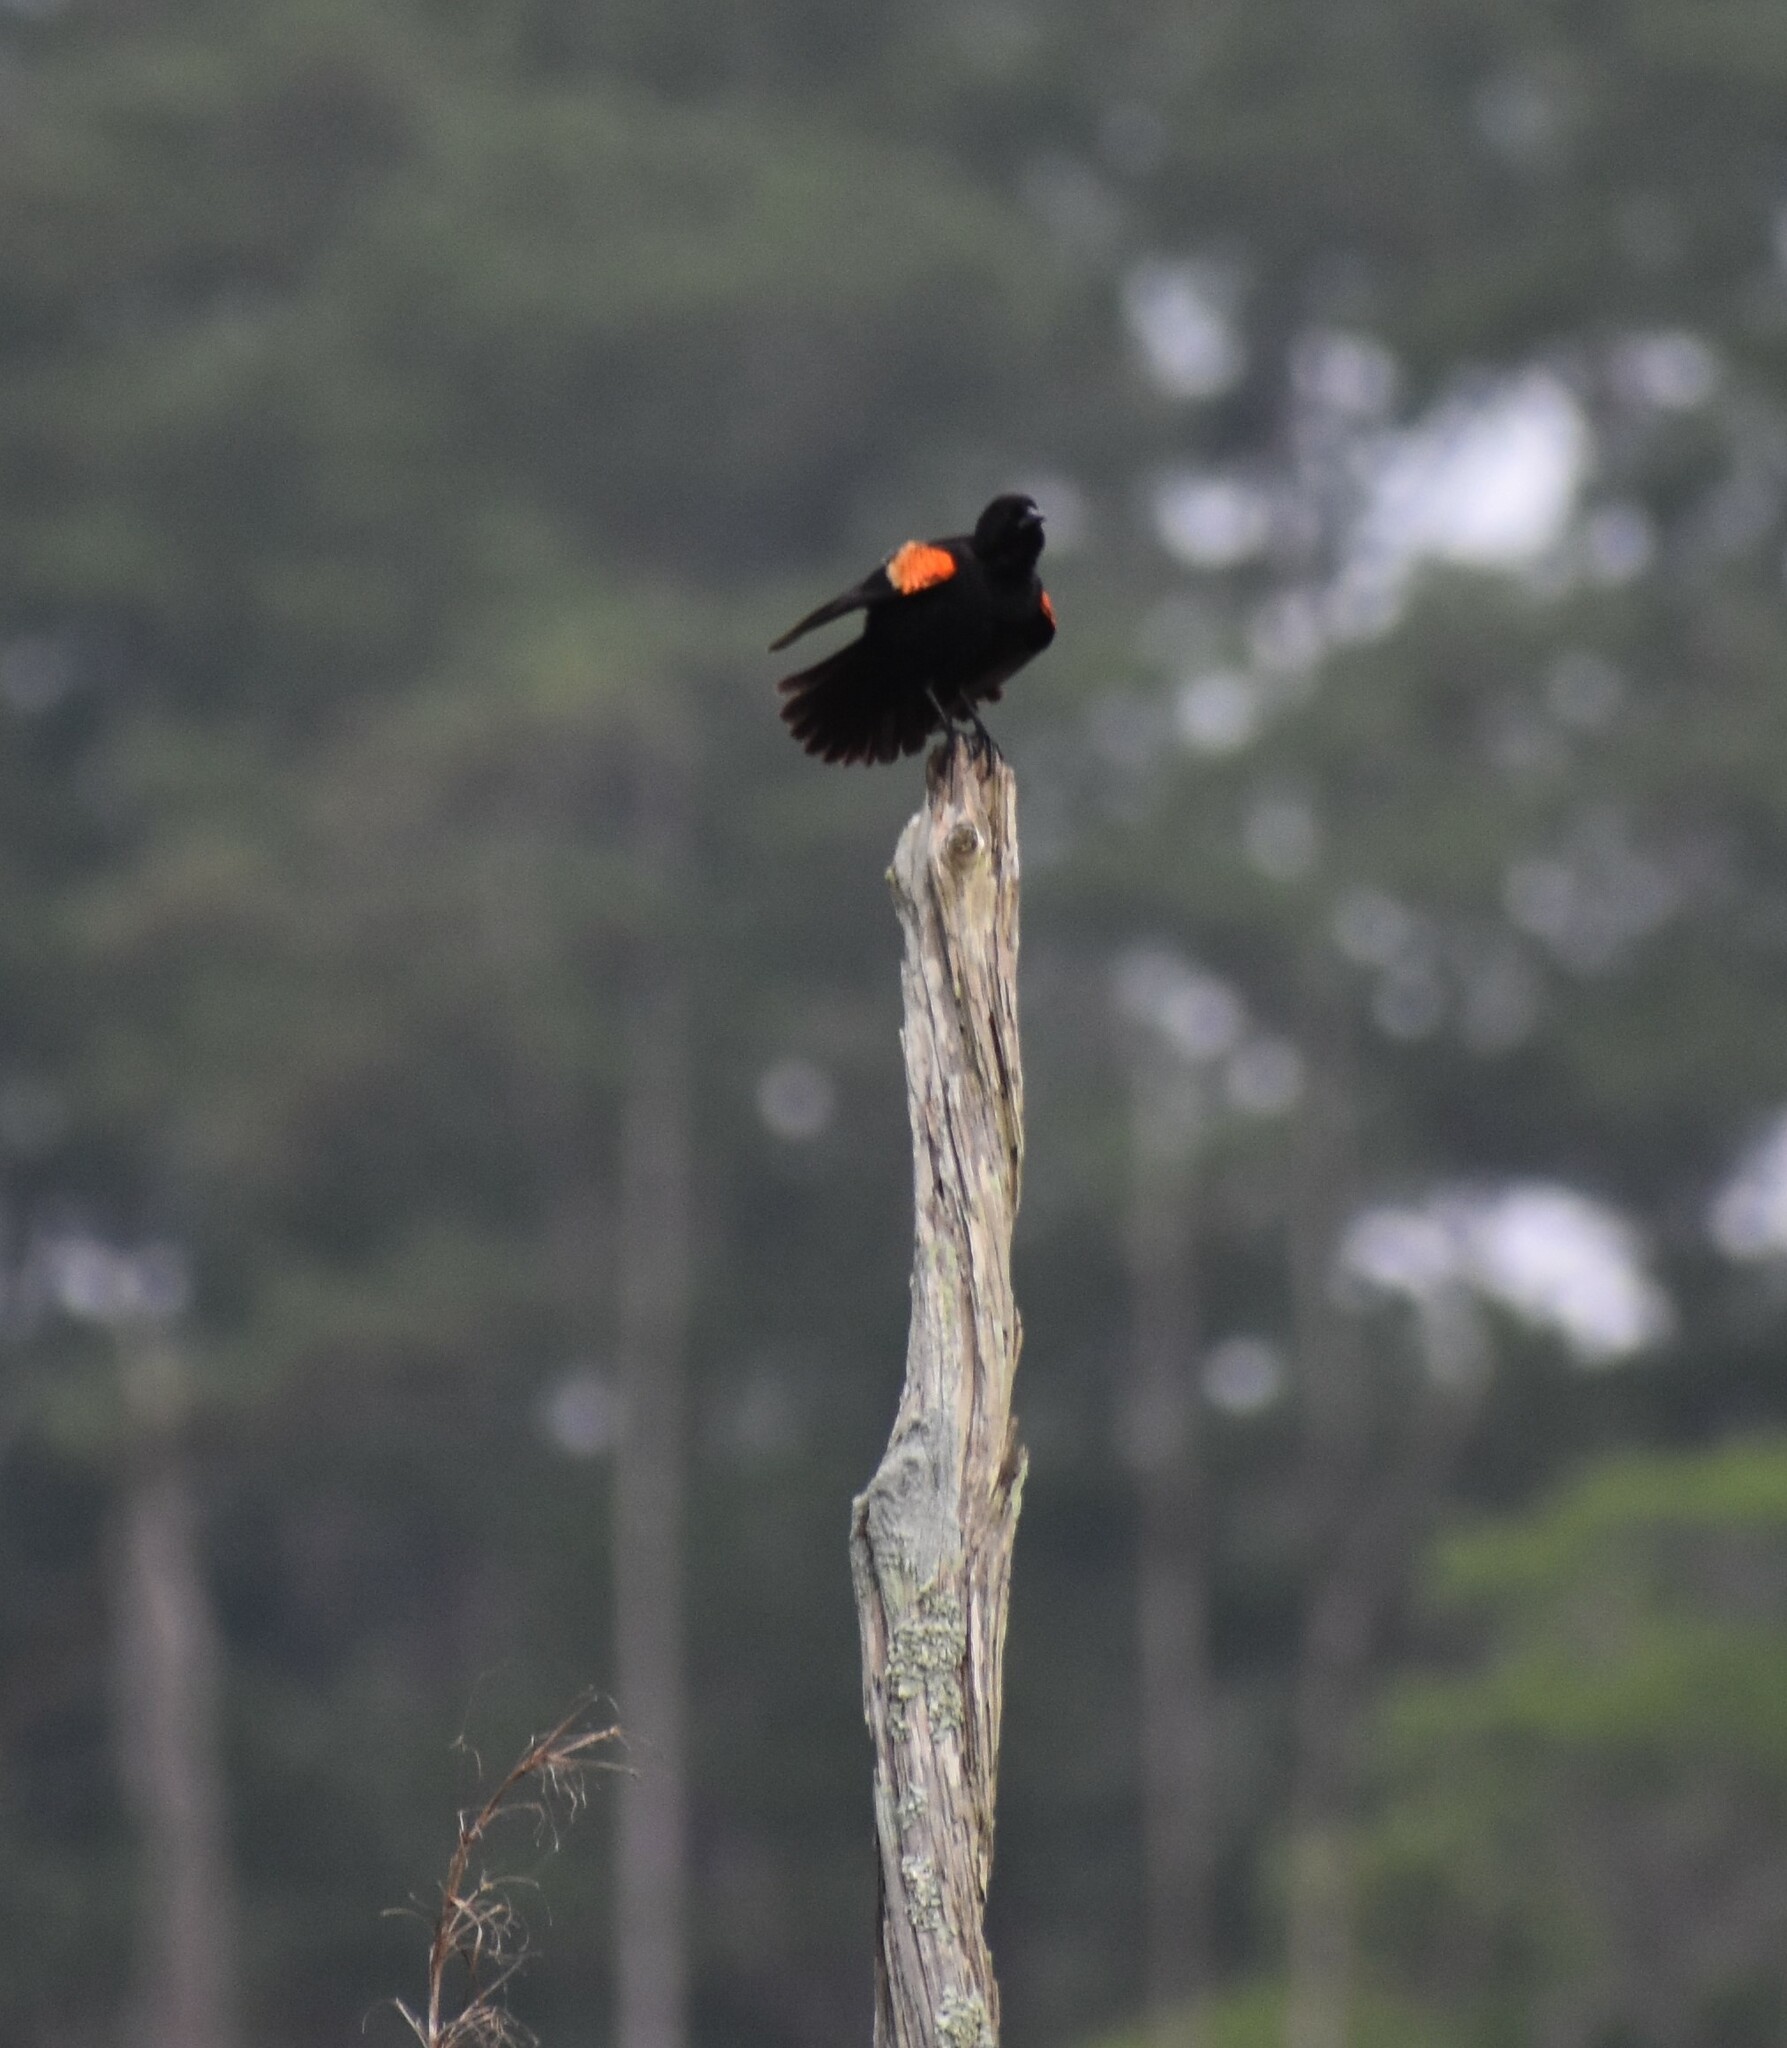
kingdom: Animalia
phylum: Chordata
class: Aves
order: Passeriformes
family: Icteridae
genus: Agelaius
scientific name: Agelaius phoeniceus
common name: Red-winged blackbird
